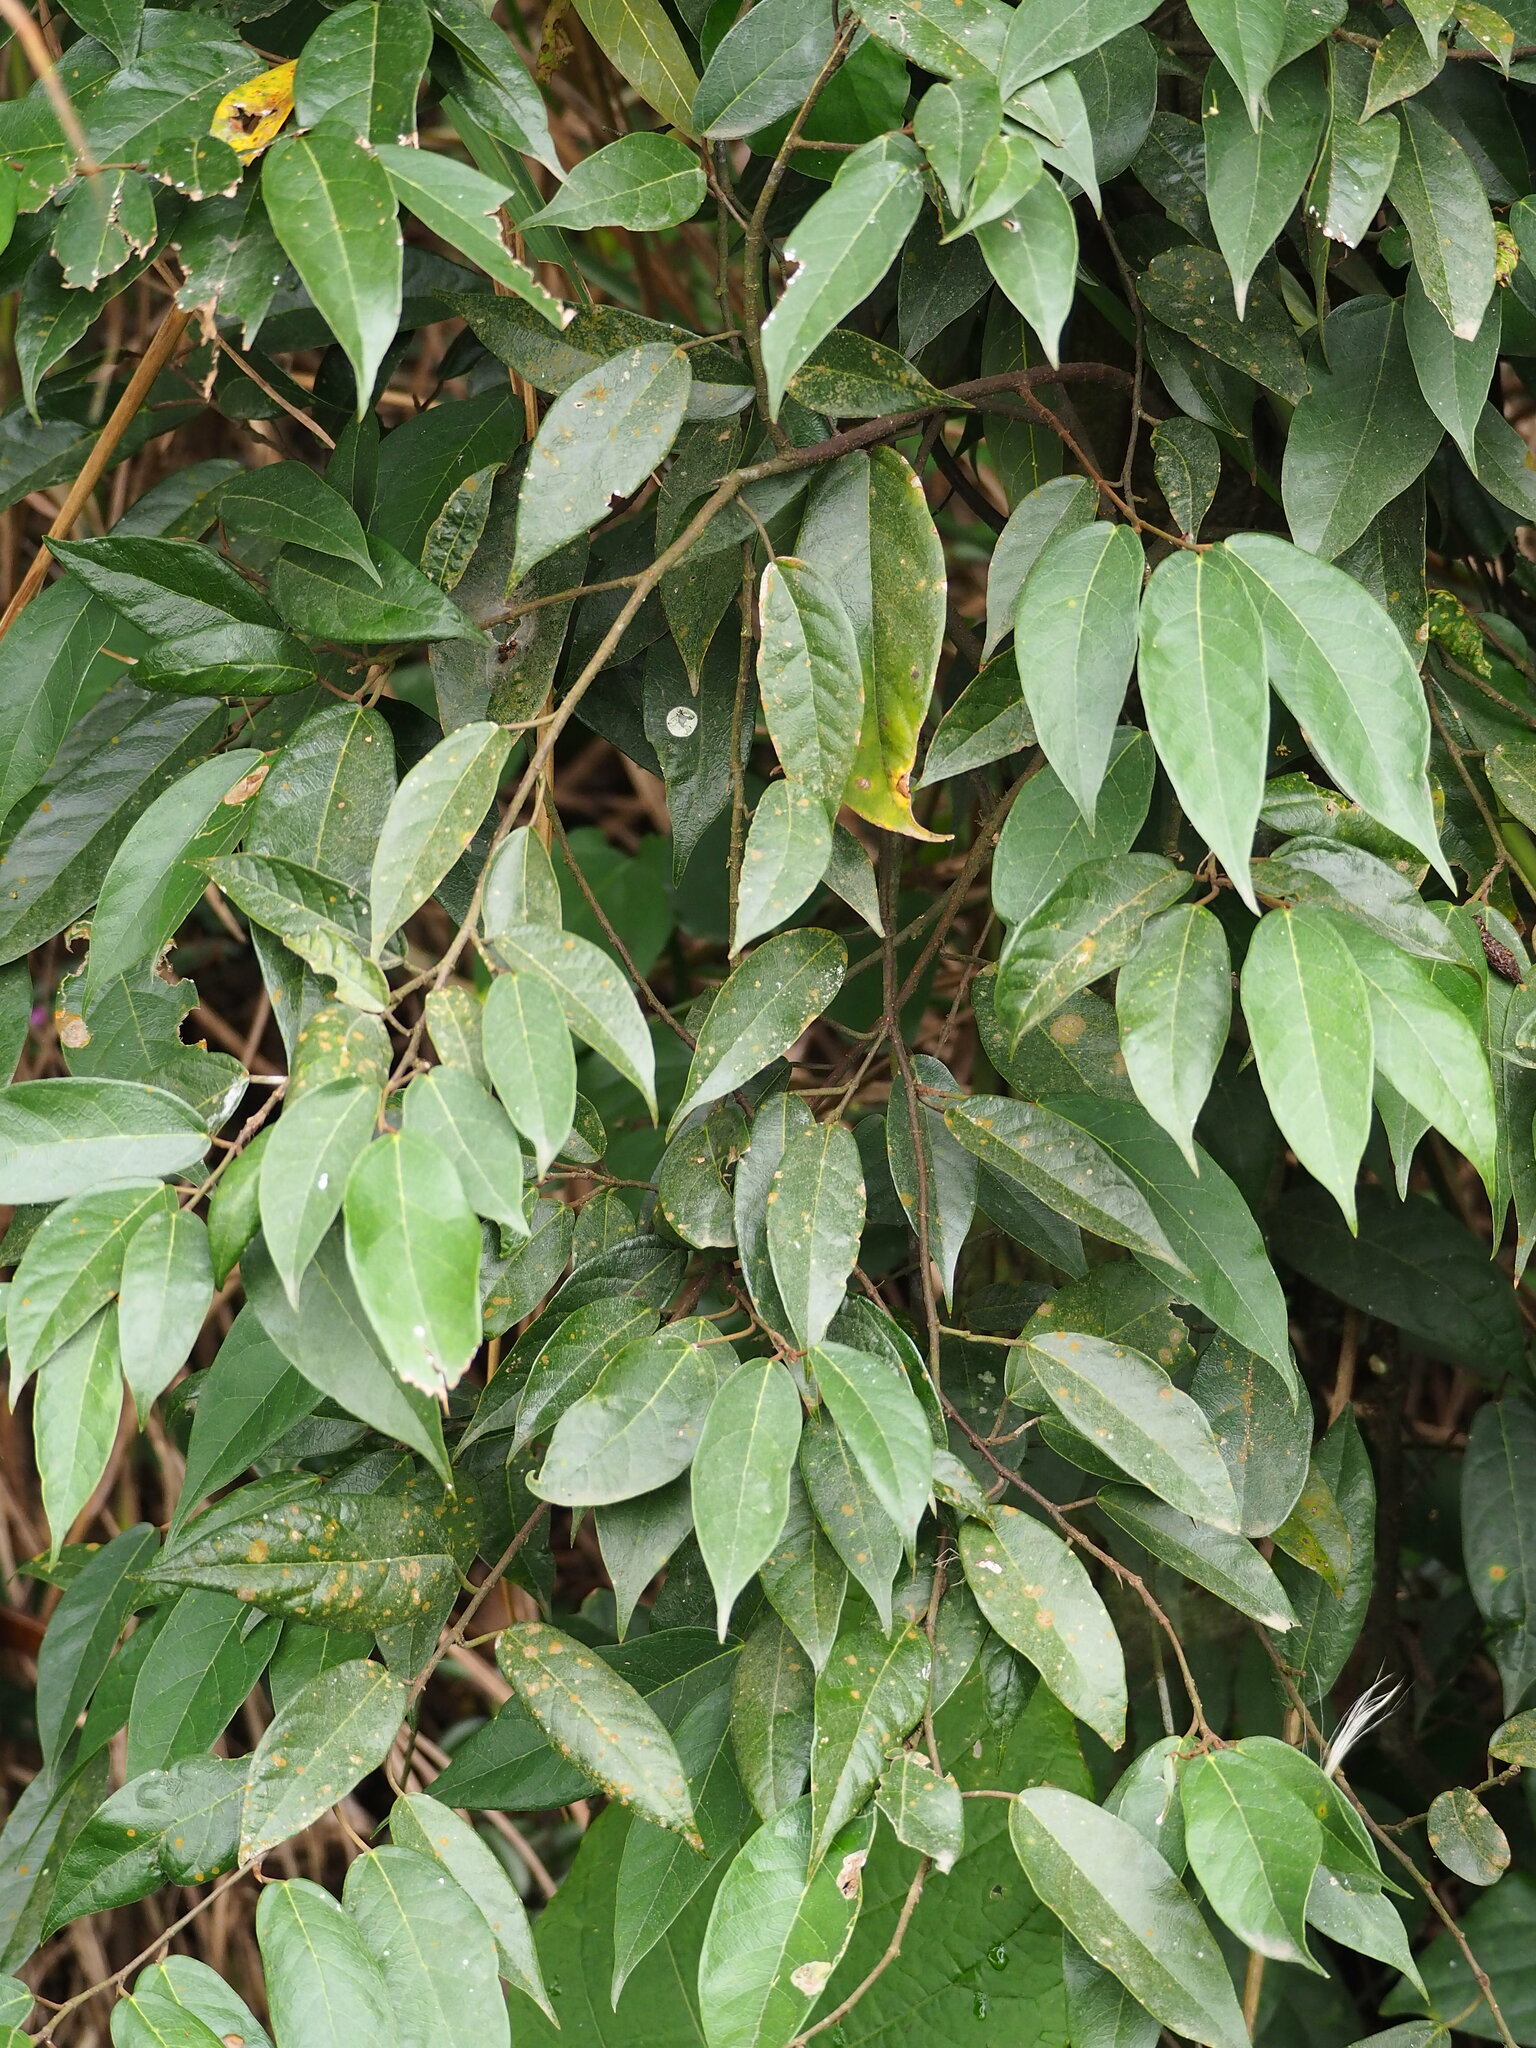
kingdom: Plantae
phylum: Tracheophyta
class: Magnoliopsida
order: Rosales
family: Moraceae
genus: Ficus
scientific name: Ficus sarmentosa
